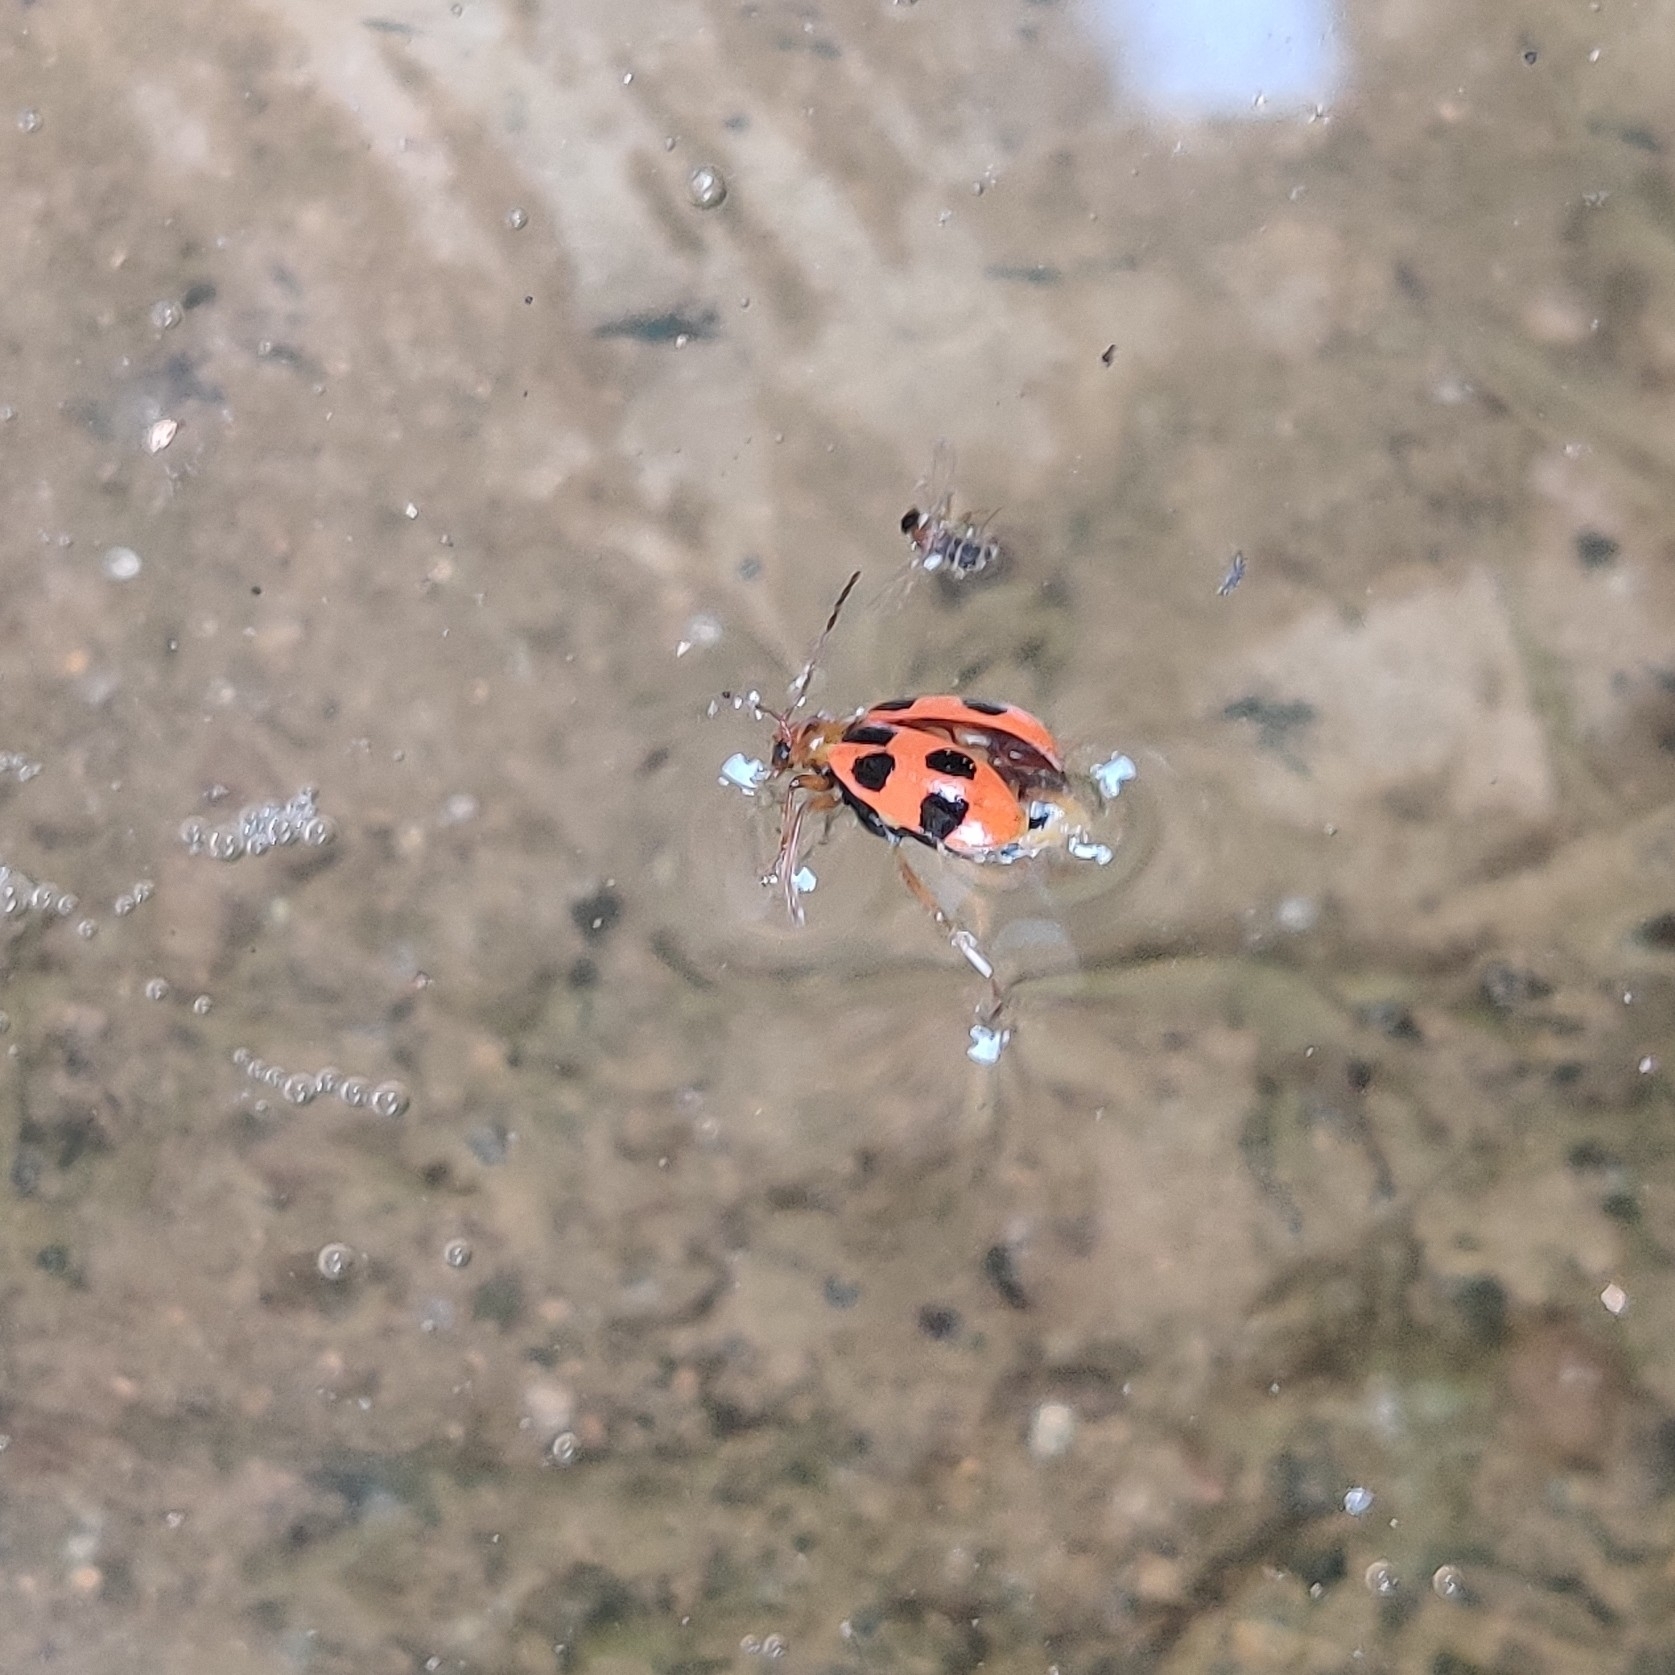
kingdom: Animalia
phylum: Arthropoda
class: Insecta
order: Coleoptera
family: Chrysomelidae
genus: Paridea
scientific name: Paridea
